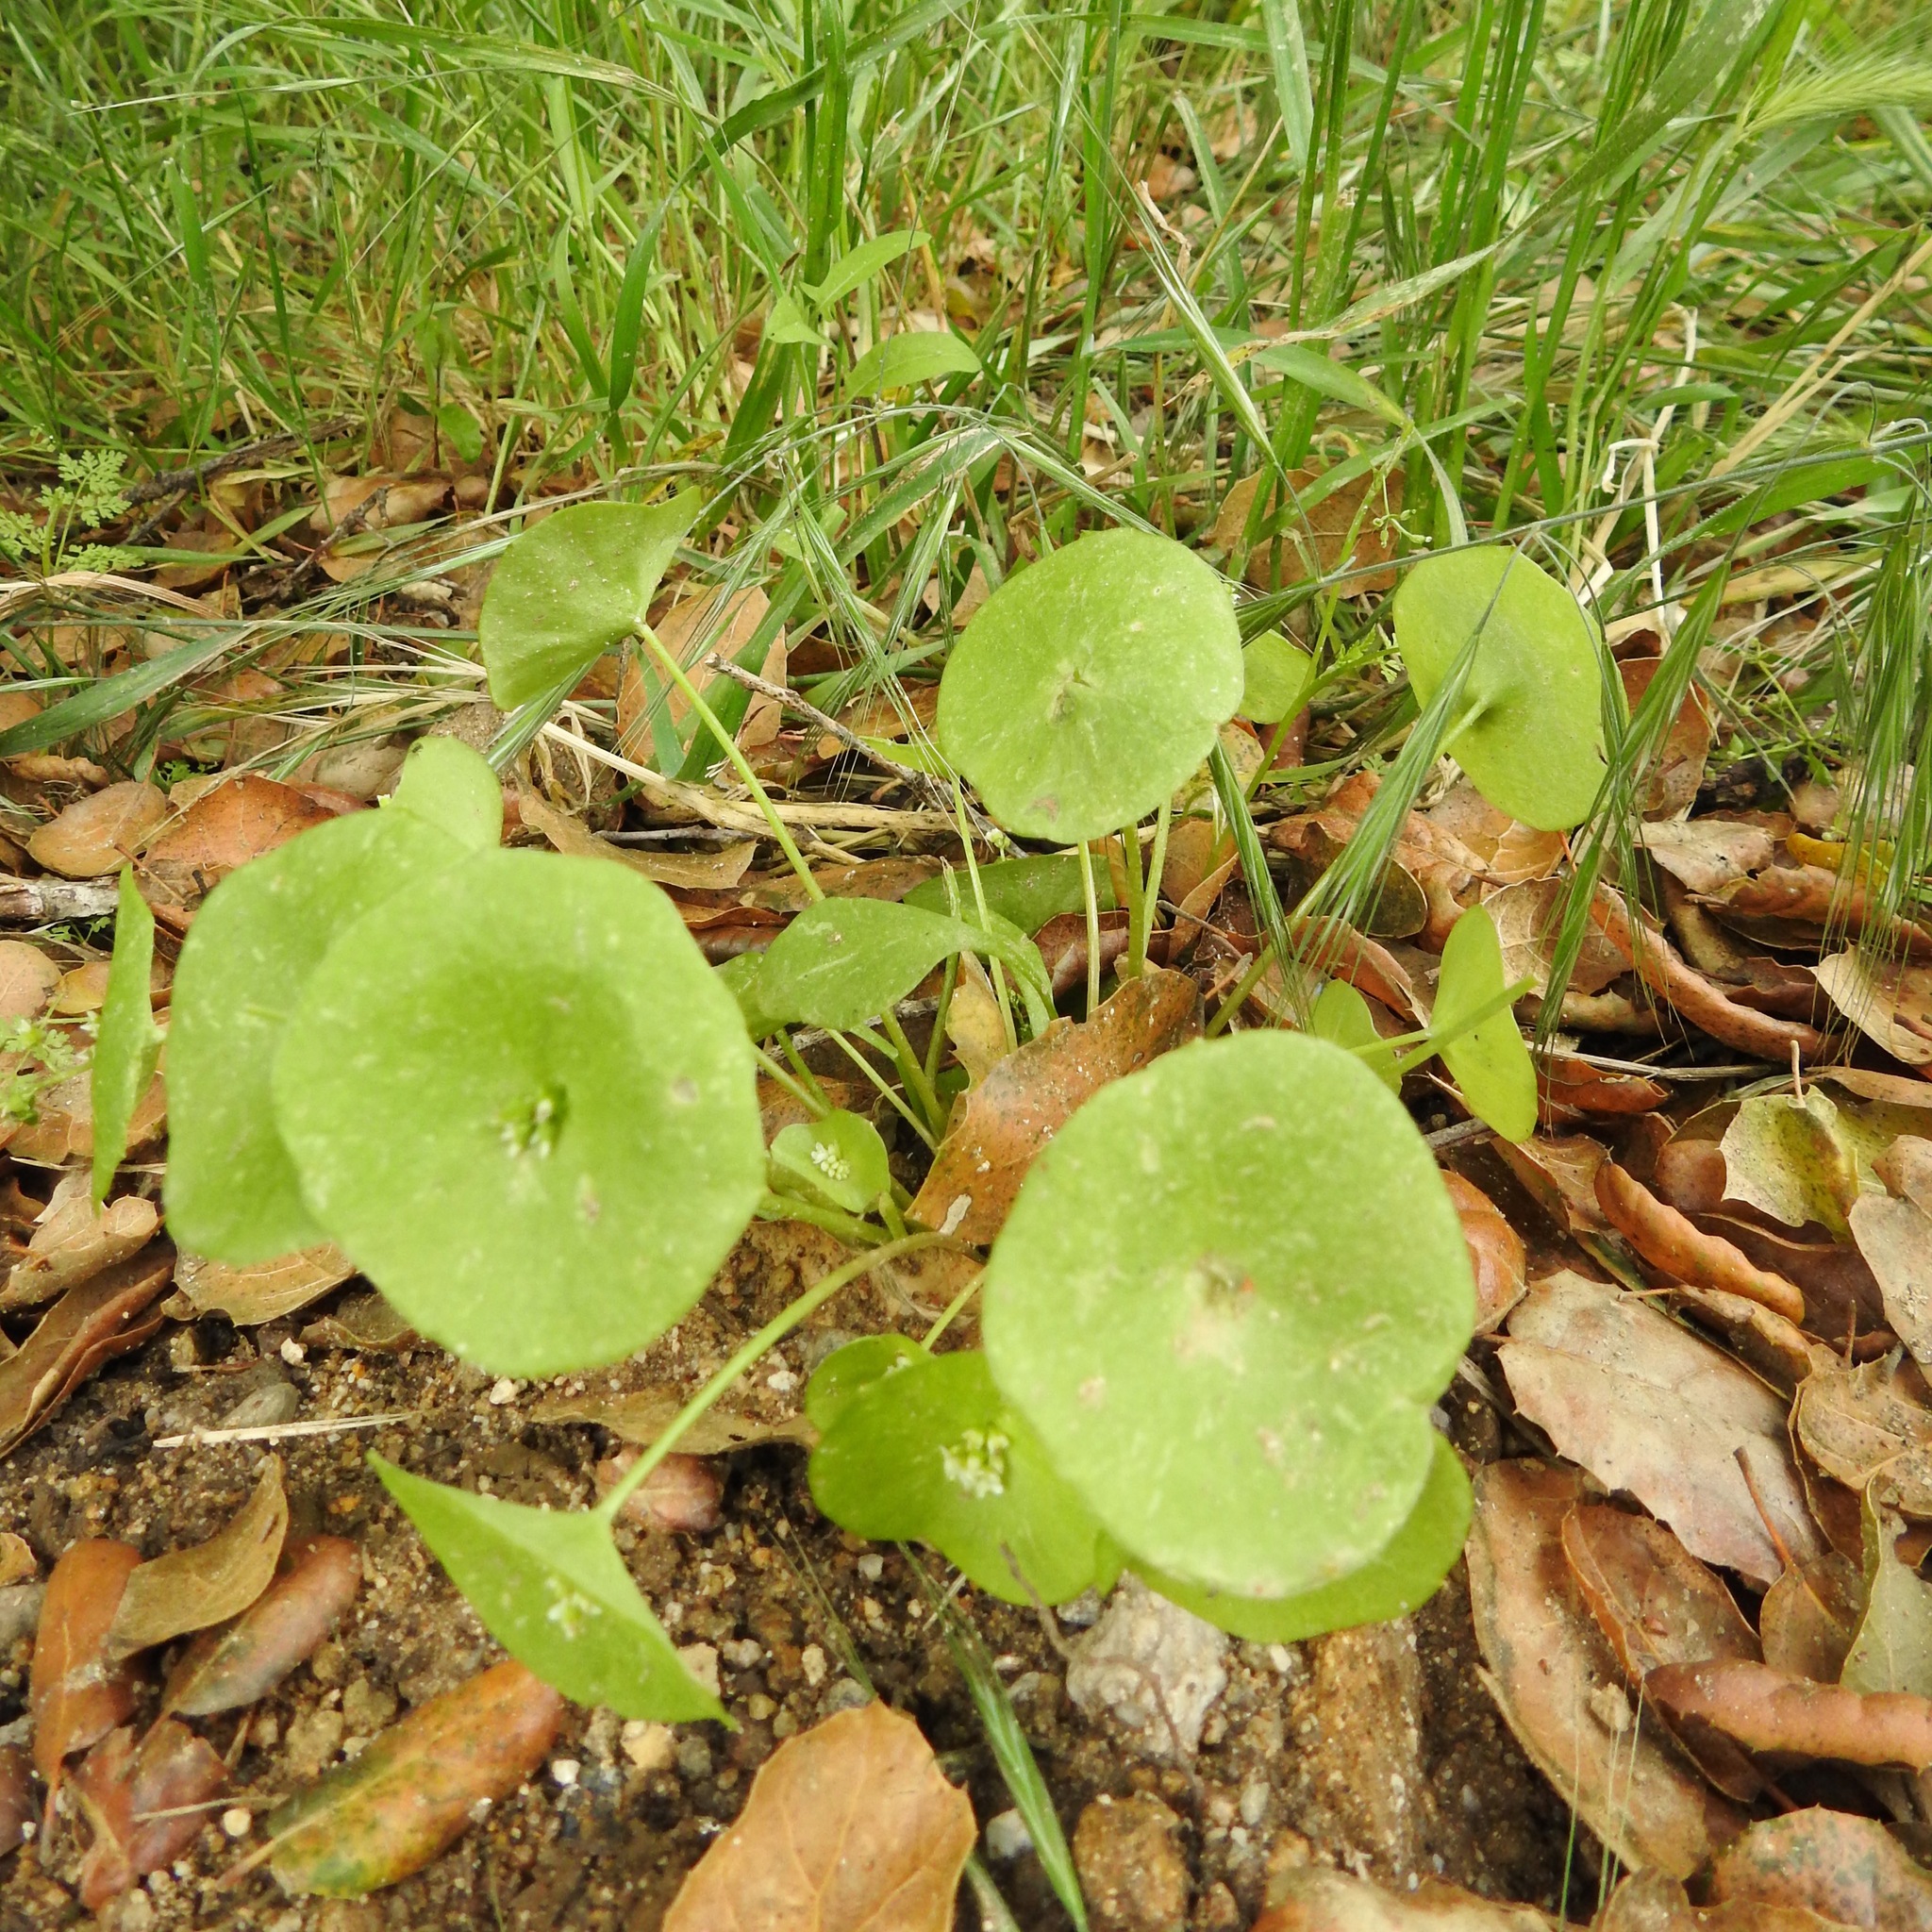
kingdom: Plantae
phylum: Tracheophyta
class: Magnoliopsida
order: Caryophyllales
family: Montiaceae
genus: Claytonia
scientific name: Claytonia perfoliata
